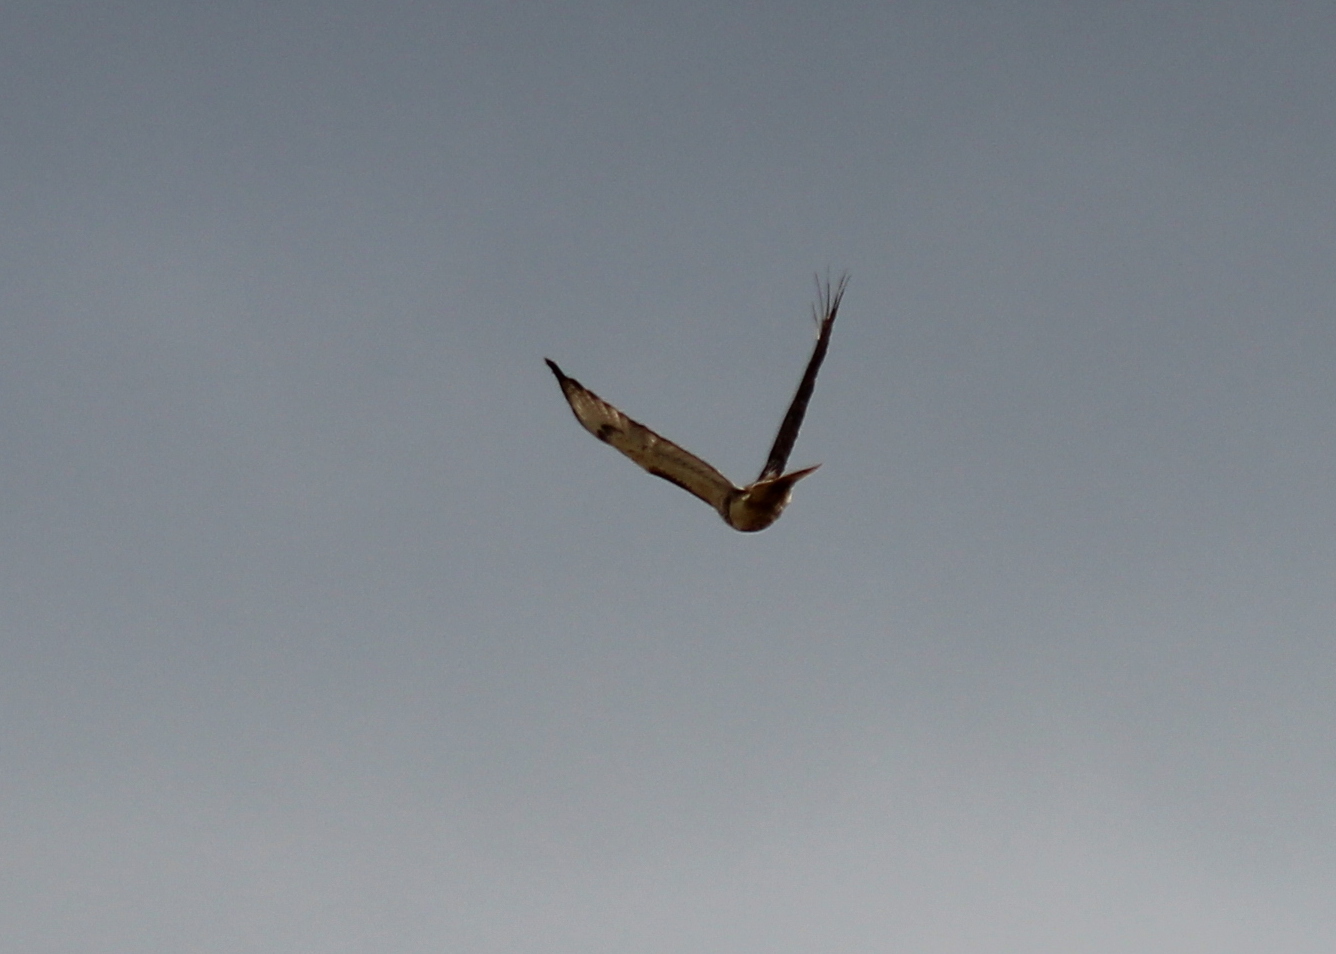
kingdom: Animalia
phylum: Chordata
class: Aves
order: Accipitriformes
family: Accipitridae
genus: Buteo
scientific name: Buteo jamaicensis
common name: Red-tailed hawk
